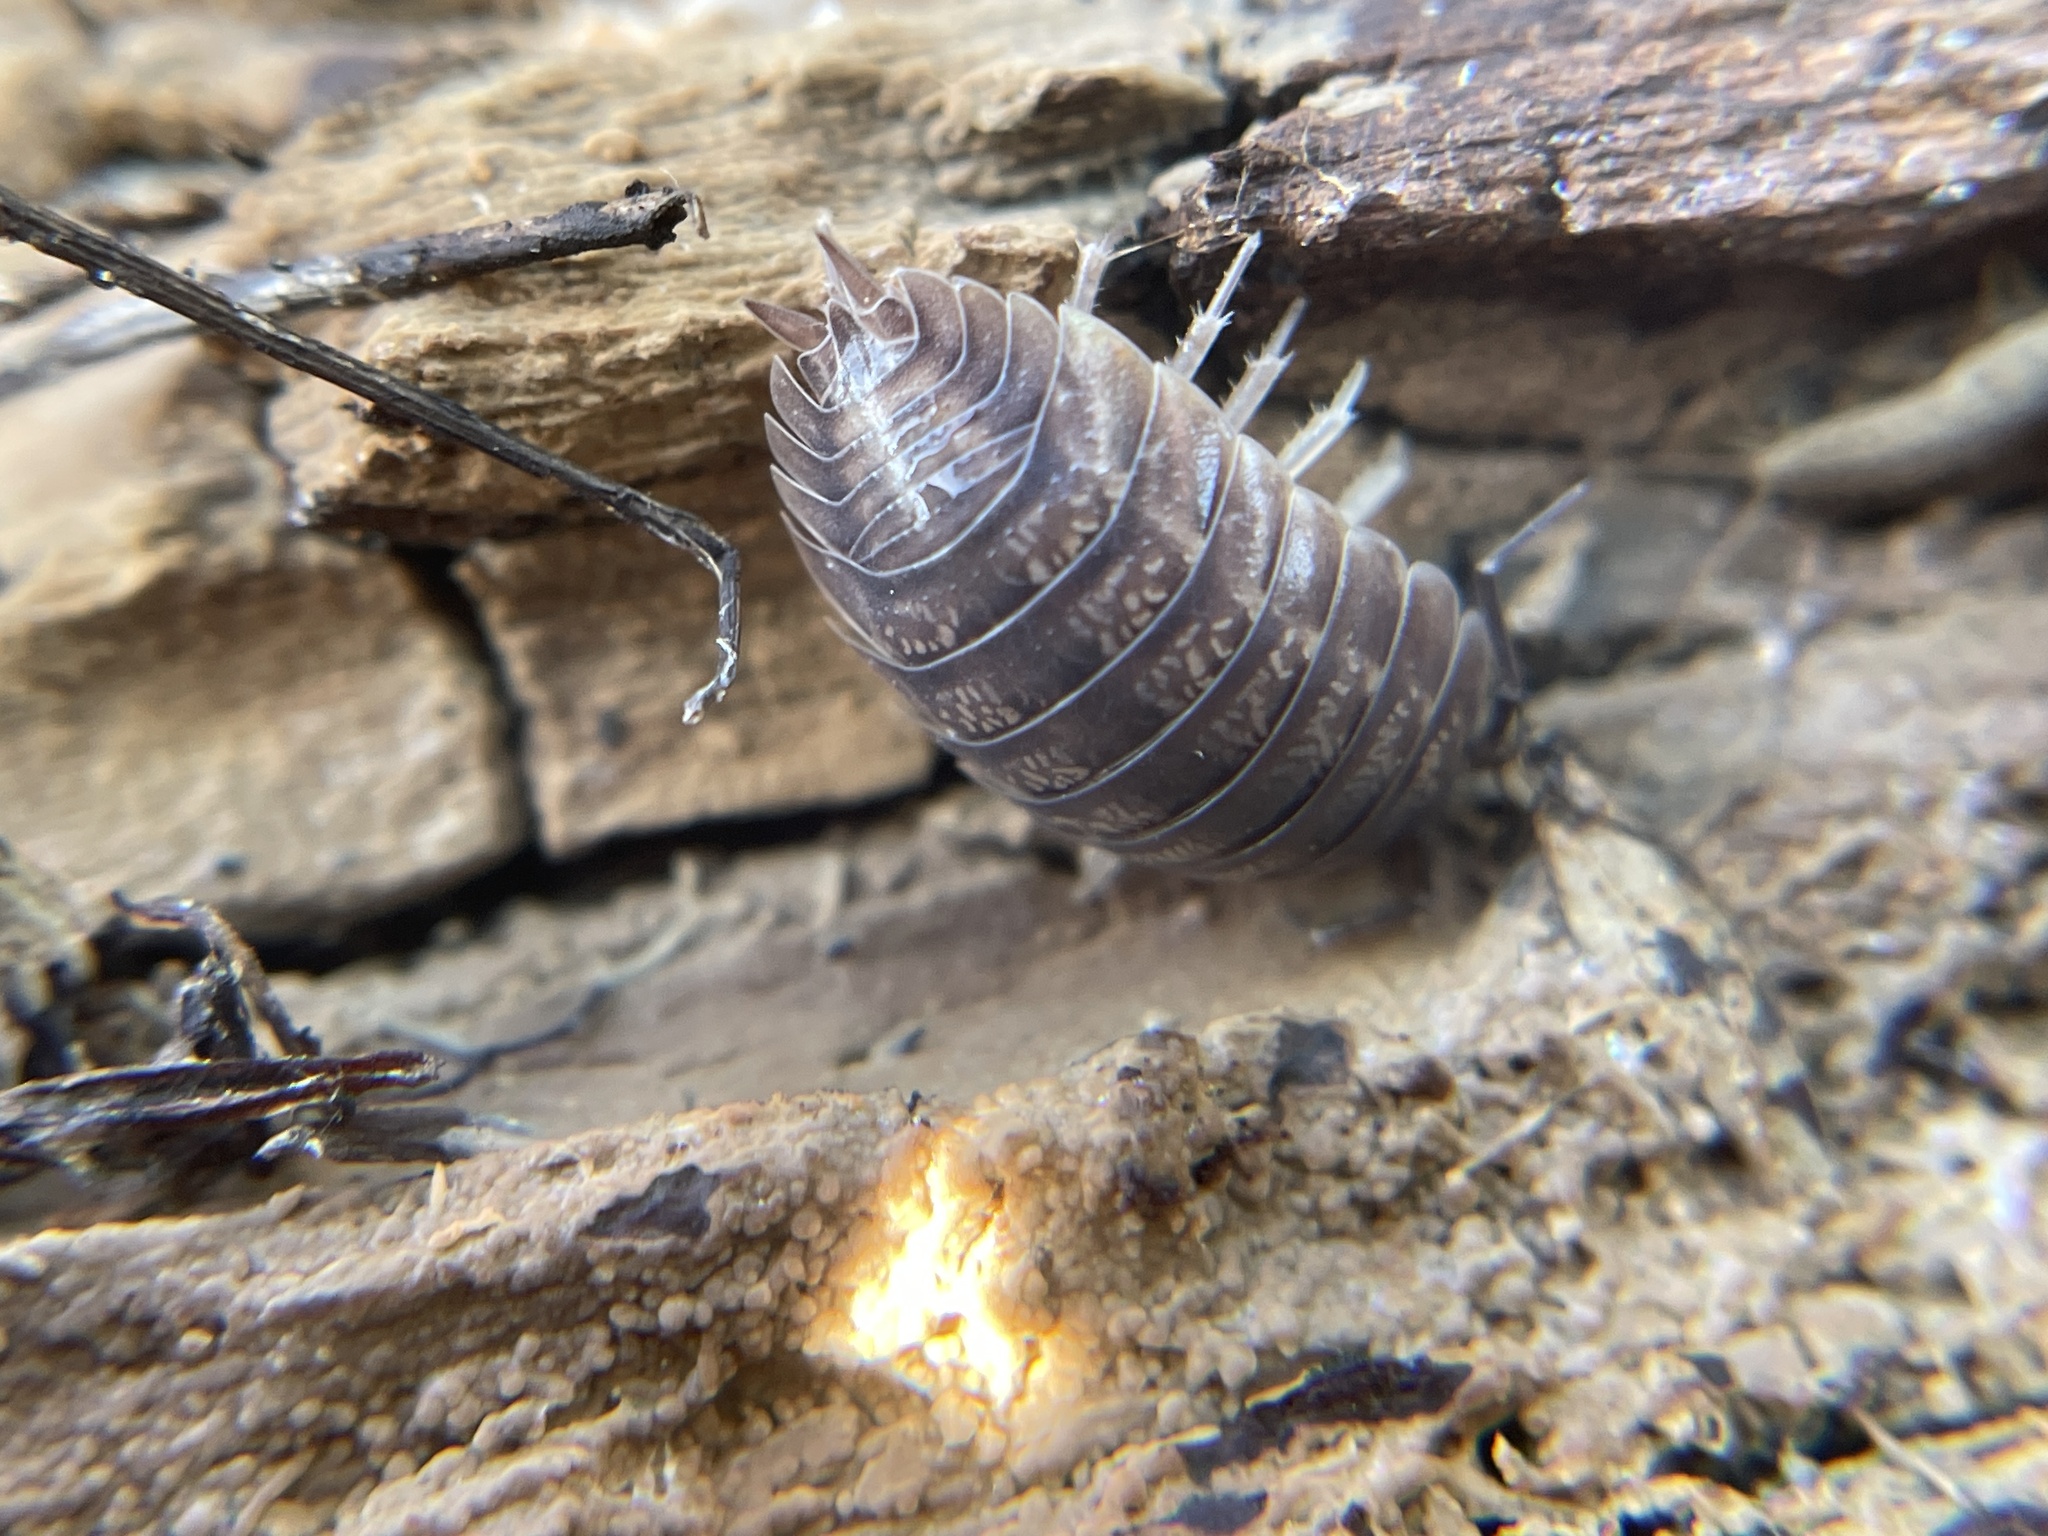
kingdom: Animalia
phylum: Arthropoda
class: Malacostraca
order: Isopoda
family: Porcellionidae
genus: Porcellio
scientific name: Porcellio laevis
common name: Swift woodlouse
